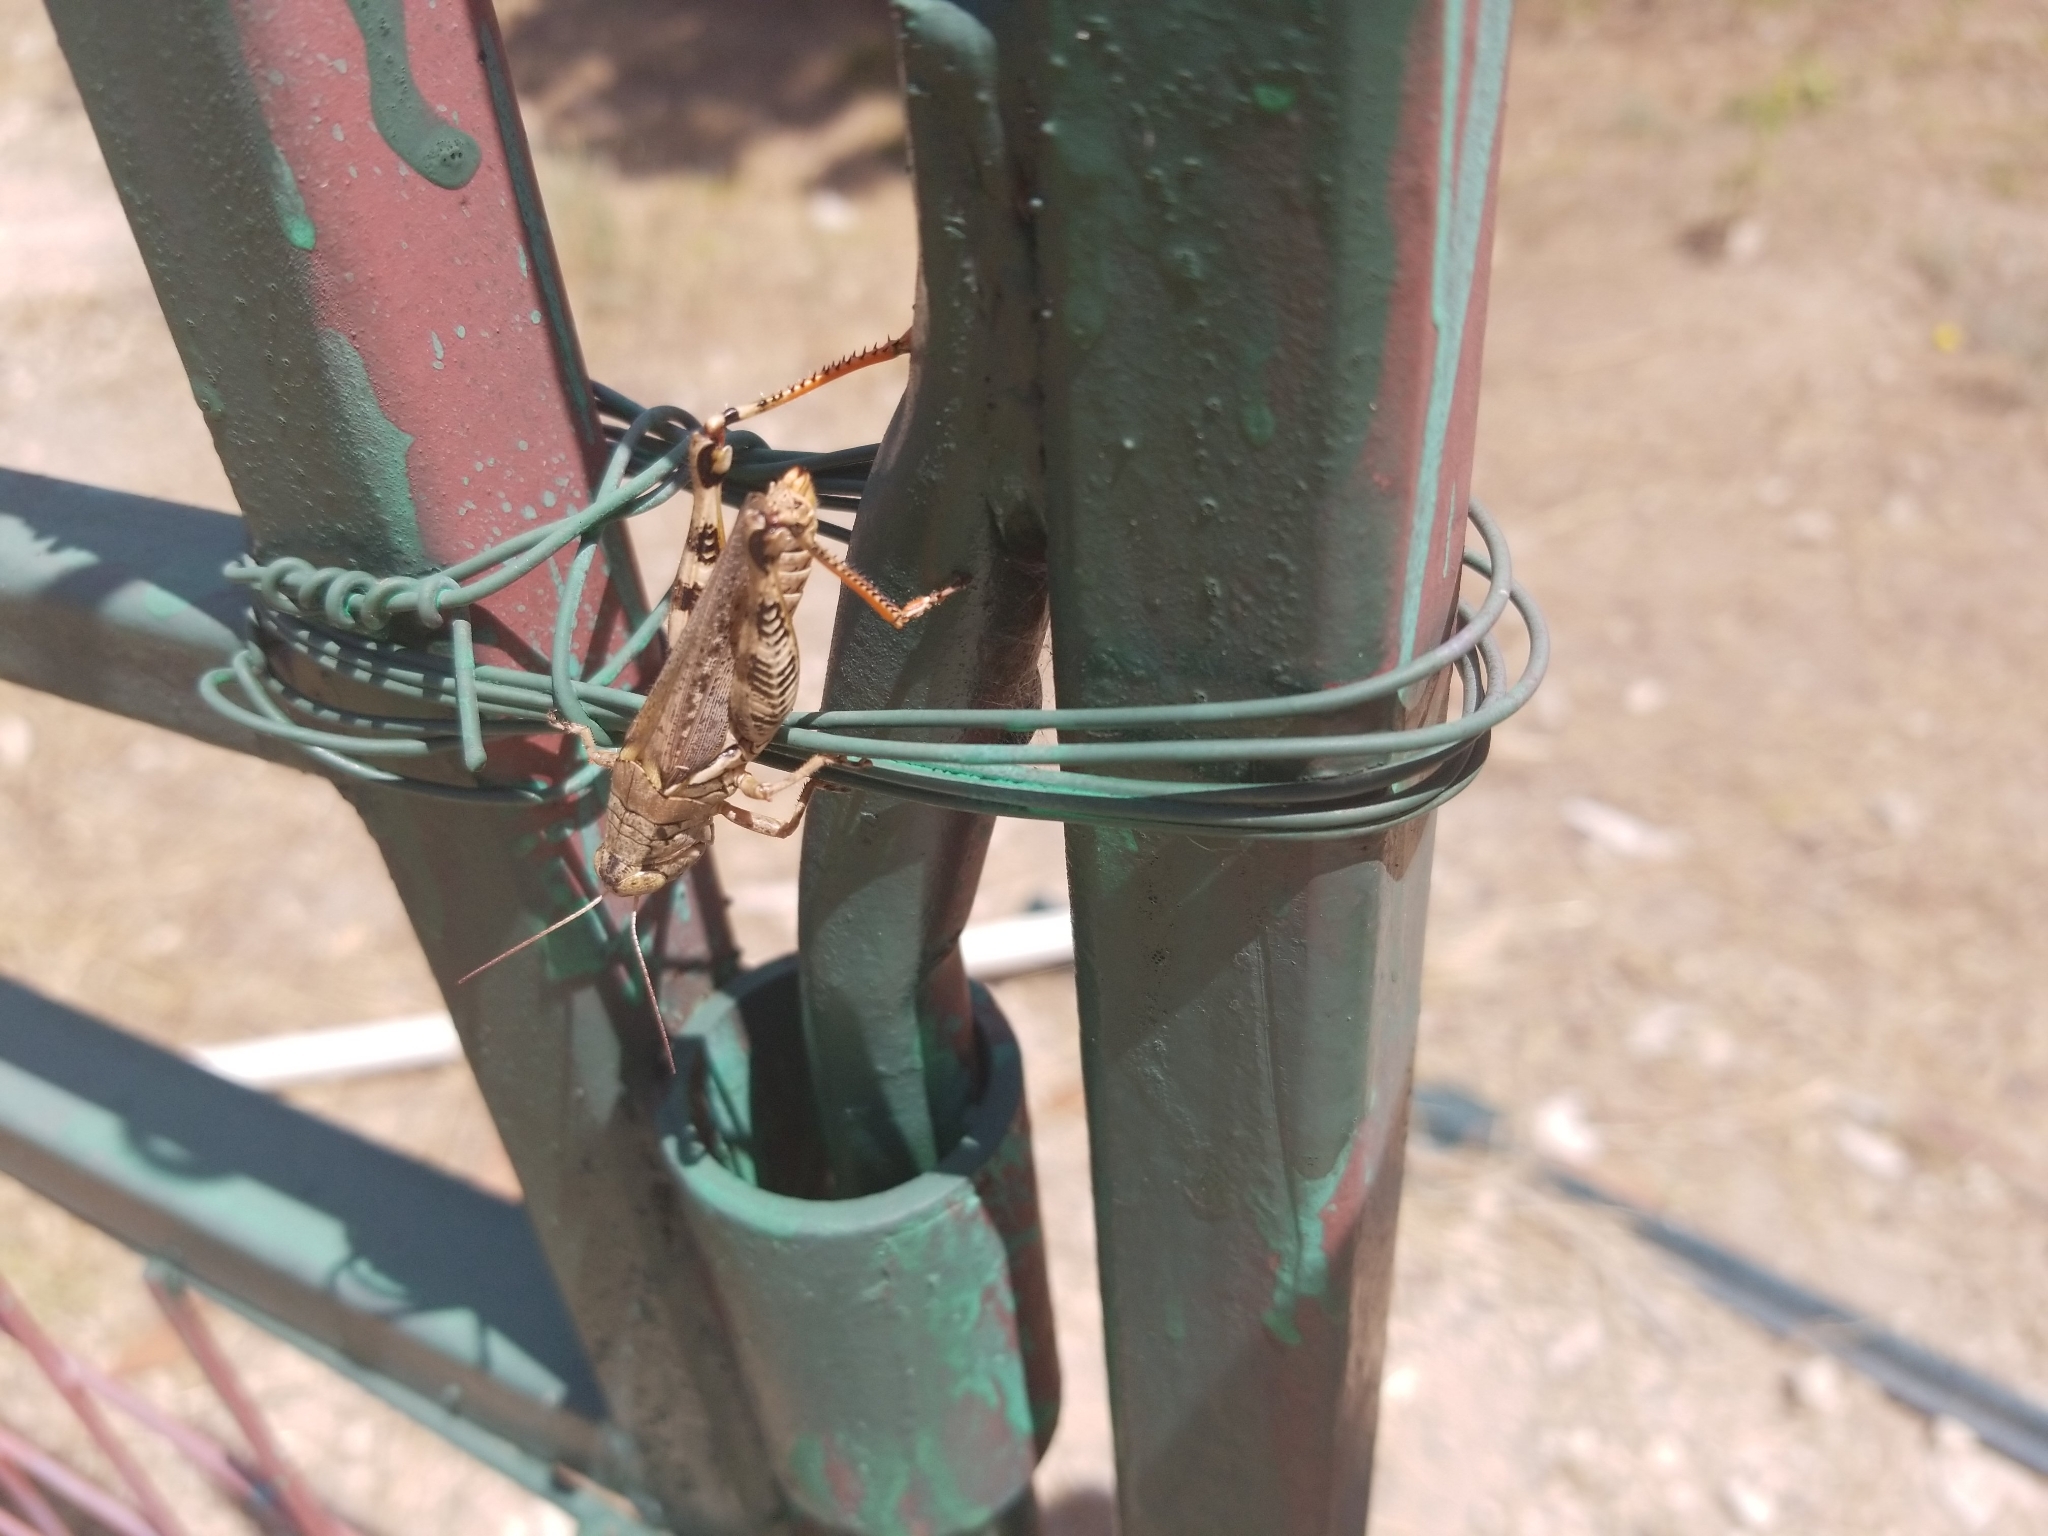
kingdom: Animalia
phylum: Arthropoda
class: Insecta
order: Orthoptera
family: Acrididae
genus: Melanoplus
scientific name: Melanoplus ponderosus
